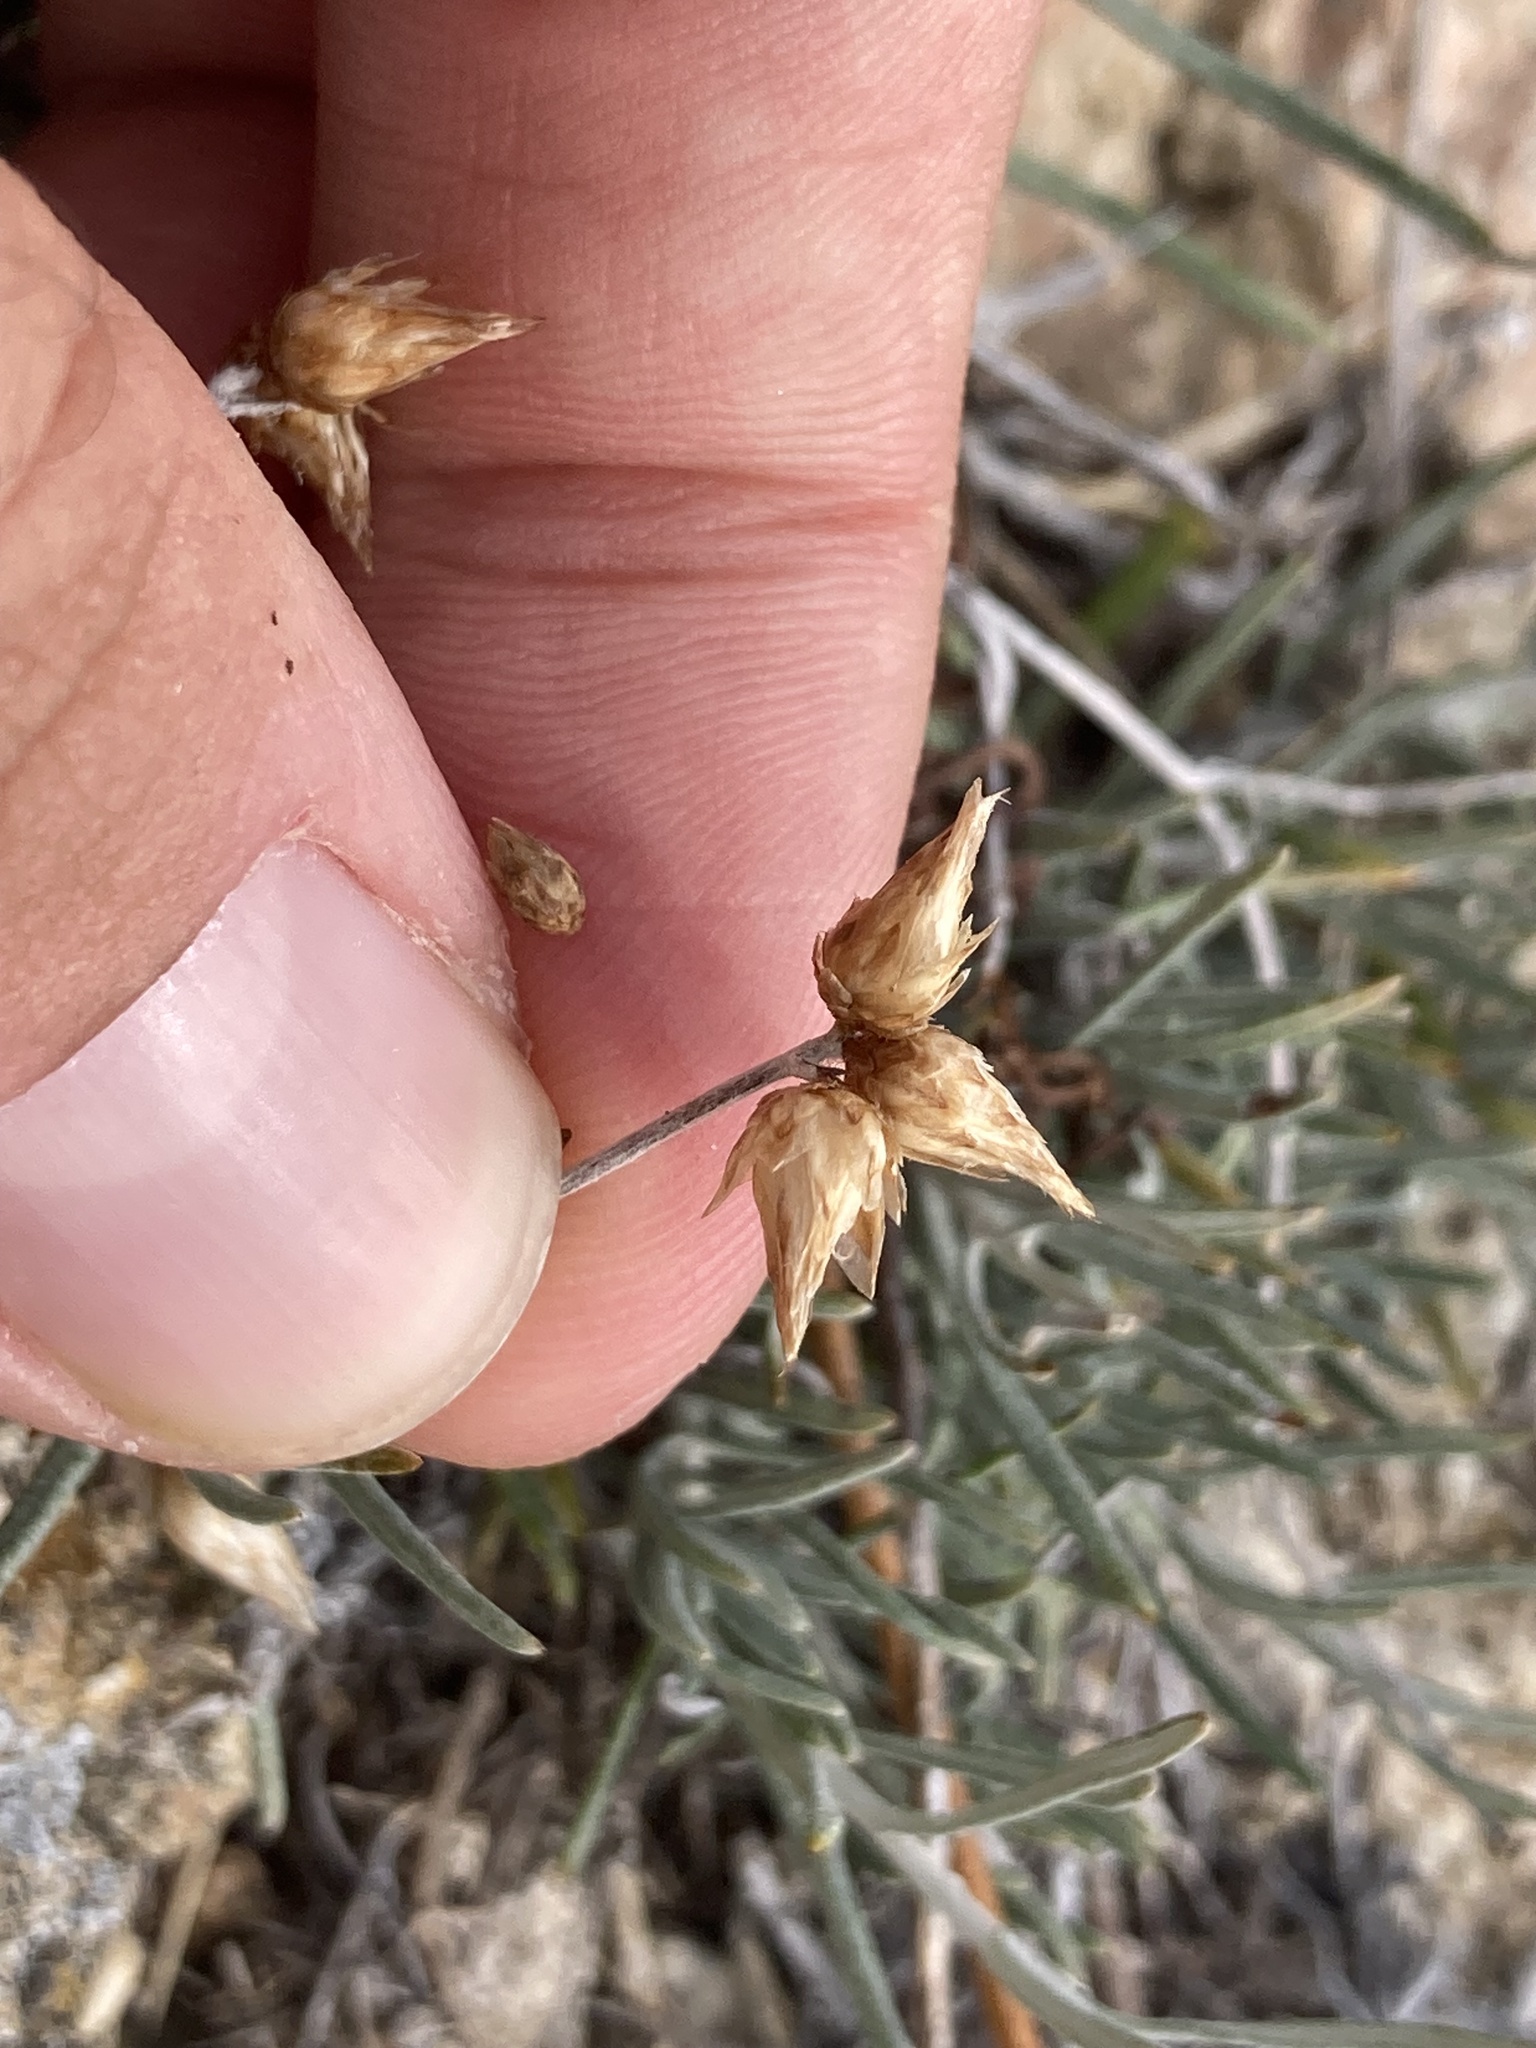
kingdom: Plantae
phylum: Tracheophyta
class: Magnoliopsida
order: Asterales
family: Asteraceae
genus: Phagnalon
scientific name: Phagnalon sordidum
